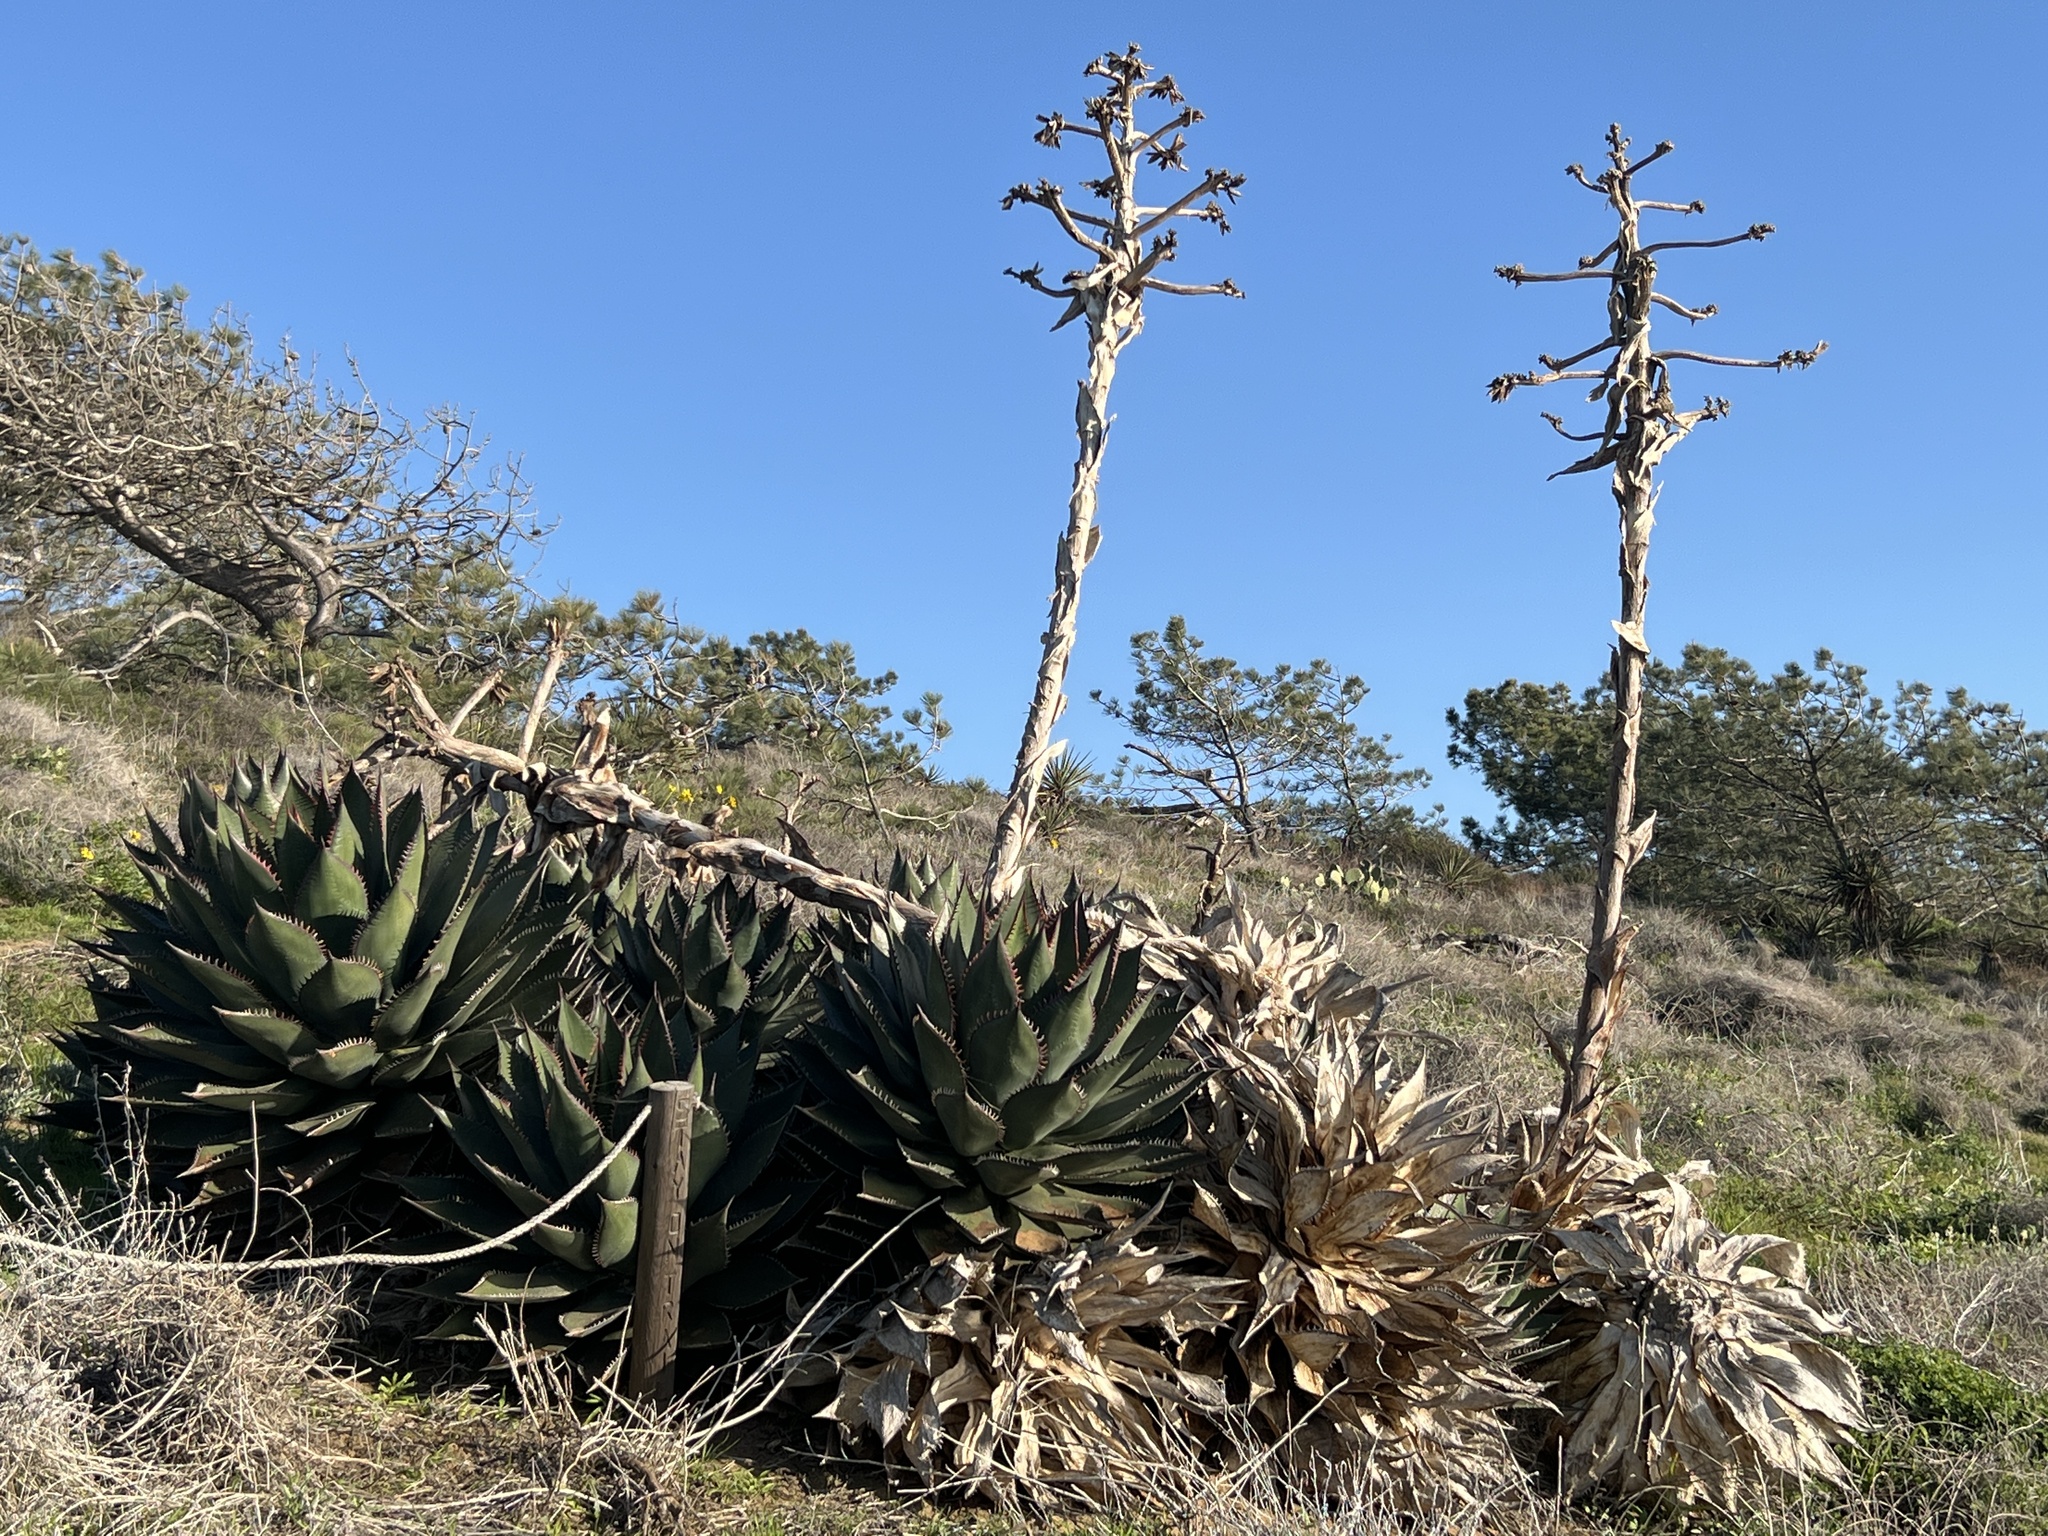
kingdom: Plantae
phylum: Tracheophyta
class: Liliopsida
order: Asparagales
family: Asparagaceae
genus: Agave
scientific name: Agave shawii
